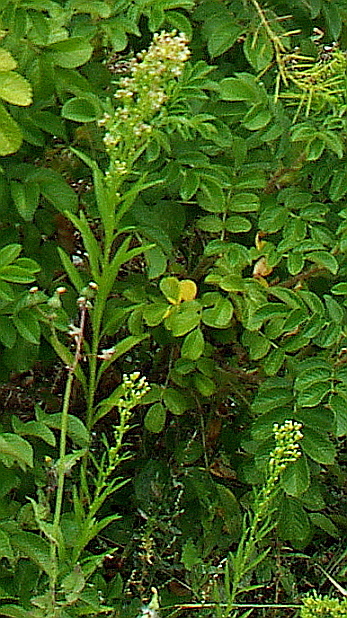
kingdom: Plantae
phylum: Tracheophyta
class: Magnoliopsida
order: Asterales
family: Asteraceae
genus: Erigeron
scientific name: Erigeron canadensis
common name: Canadian fleabane
